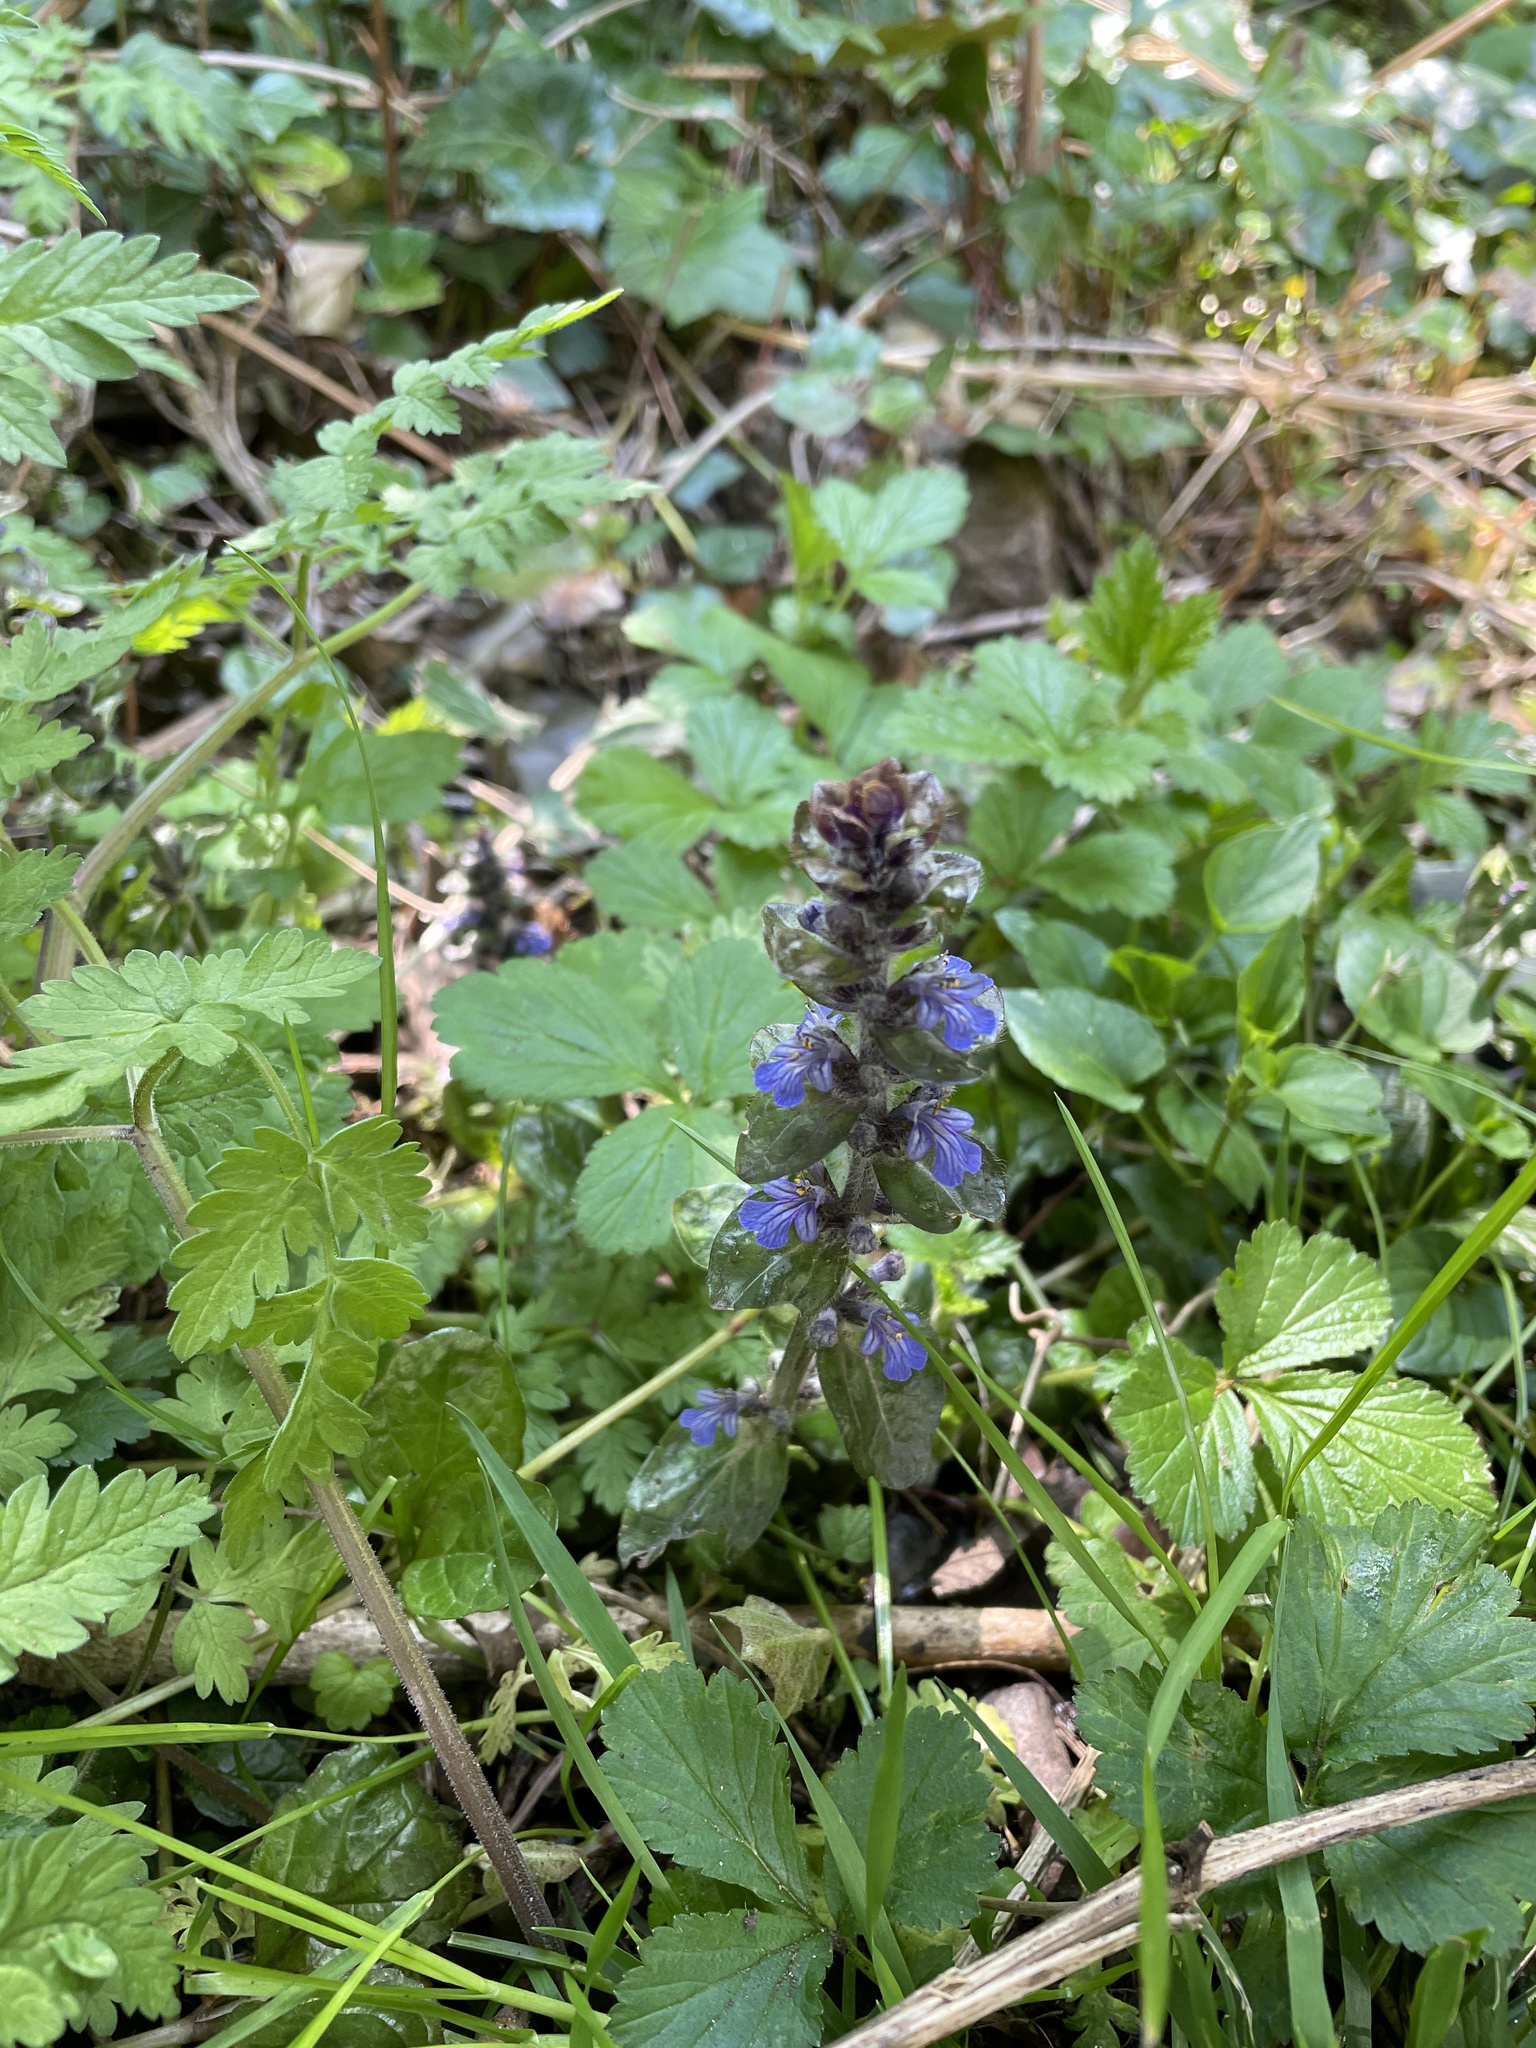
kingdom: Plantae
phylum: Tracheophyta
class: Magnoliopsida
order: Lamiales
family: Lamiaceae
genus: Ajuga
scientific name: Ajuga reptans
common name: Bugle
